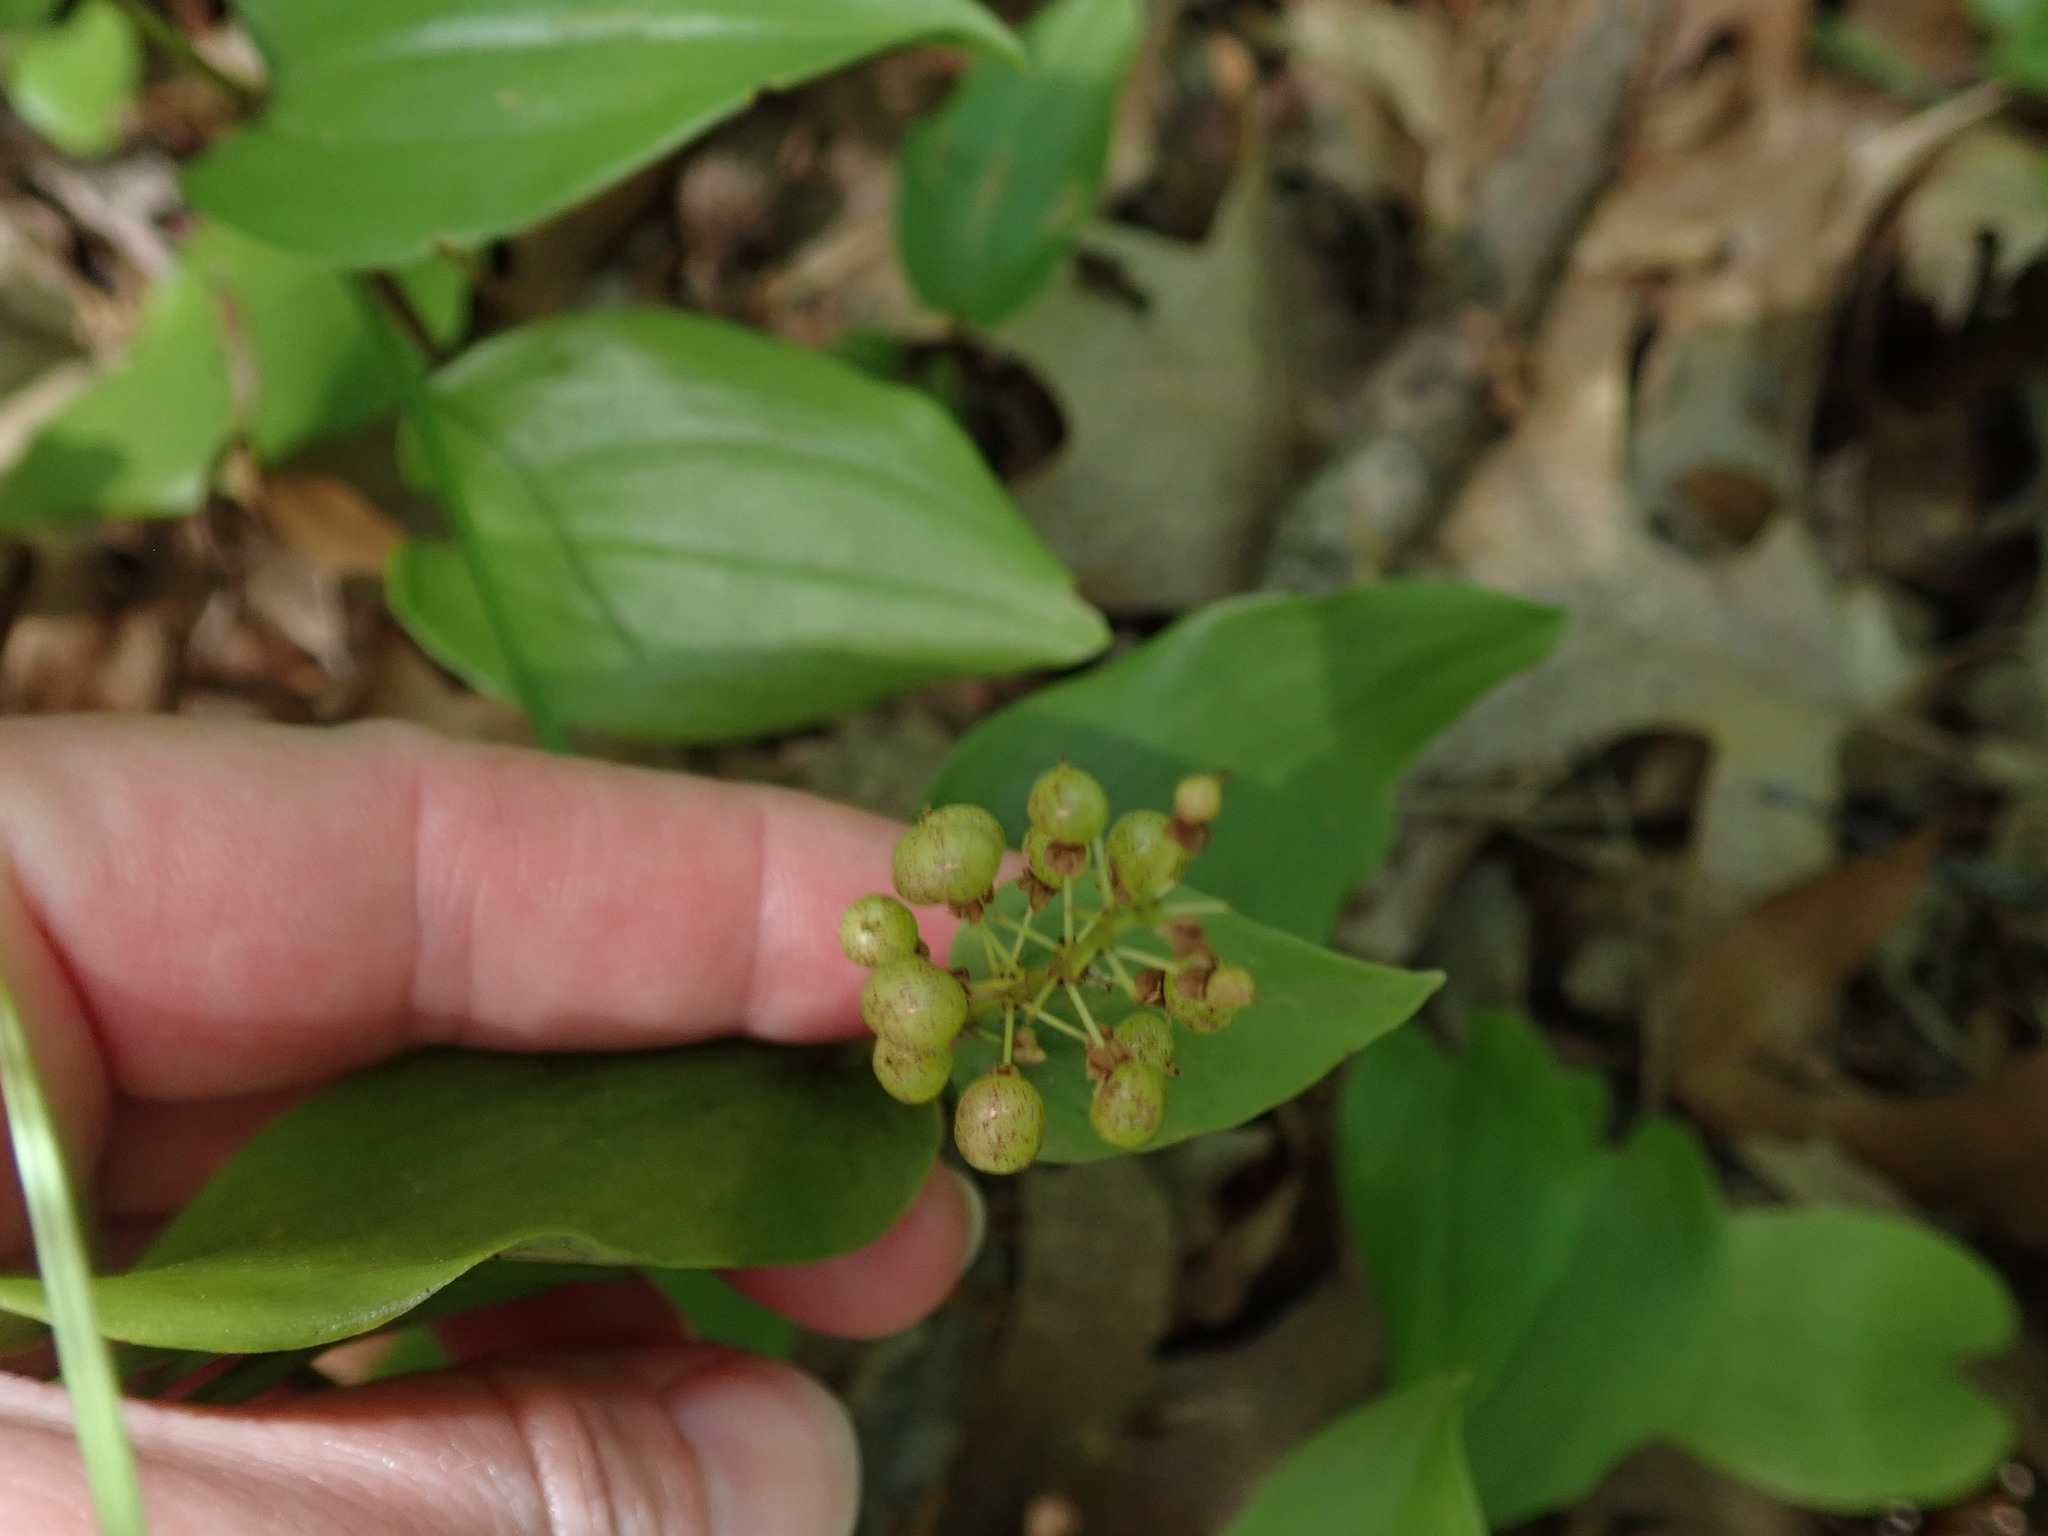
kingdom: Plantae
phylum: Tracheophyta
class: Liliopsida
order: Asparagales
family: Asparagaceae
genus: Maianthemum
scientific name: Maianthemum canadense
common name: False lily-of-the-valley
